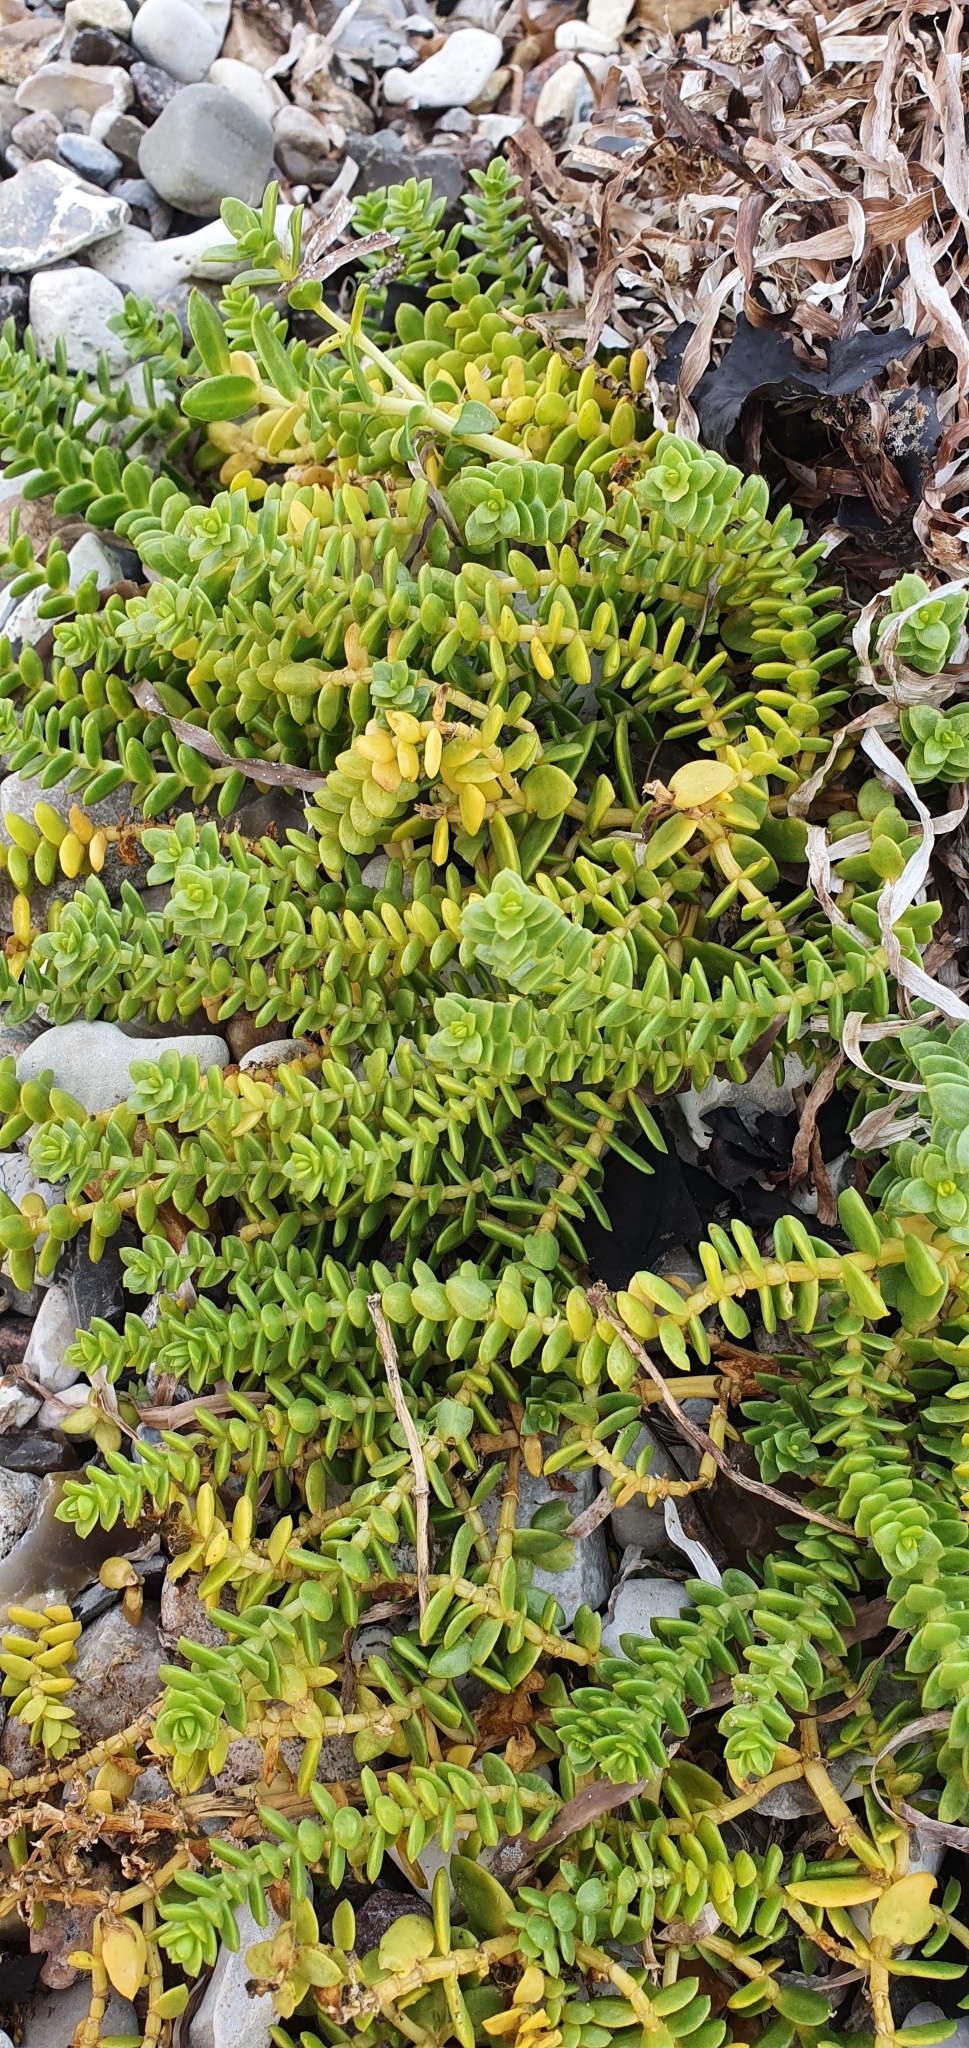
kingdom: Plantae
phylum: Tracheophyta
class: Magnoliopsida
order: Caryophyllales
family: Caryophyllaceae
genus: Honckenya
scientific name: Honckenya peploides
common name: Sea sandwort
